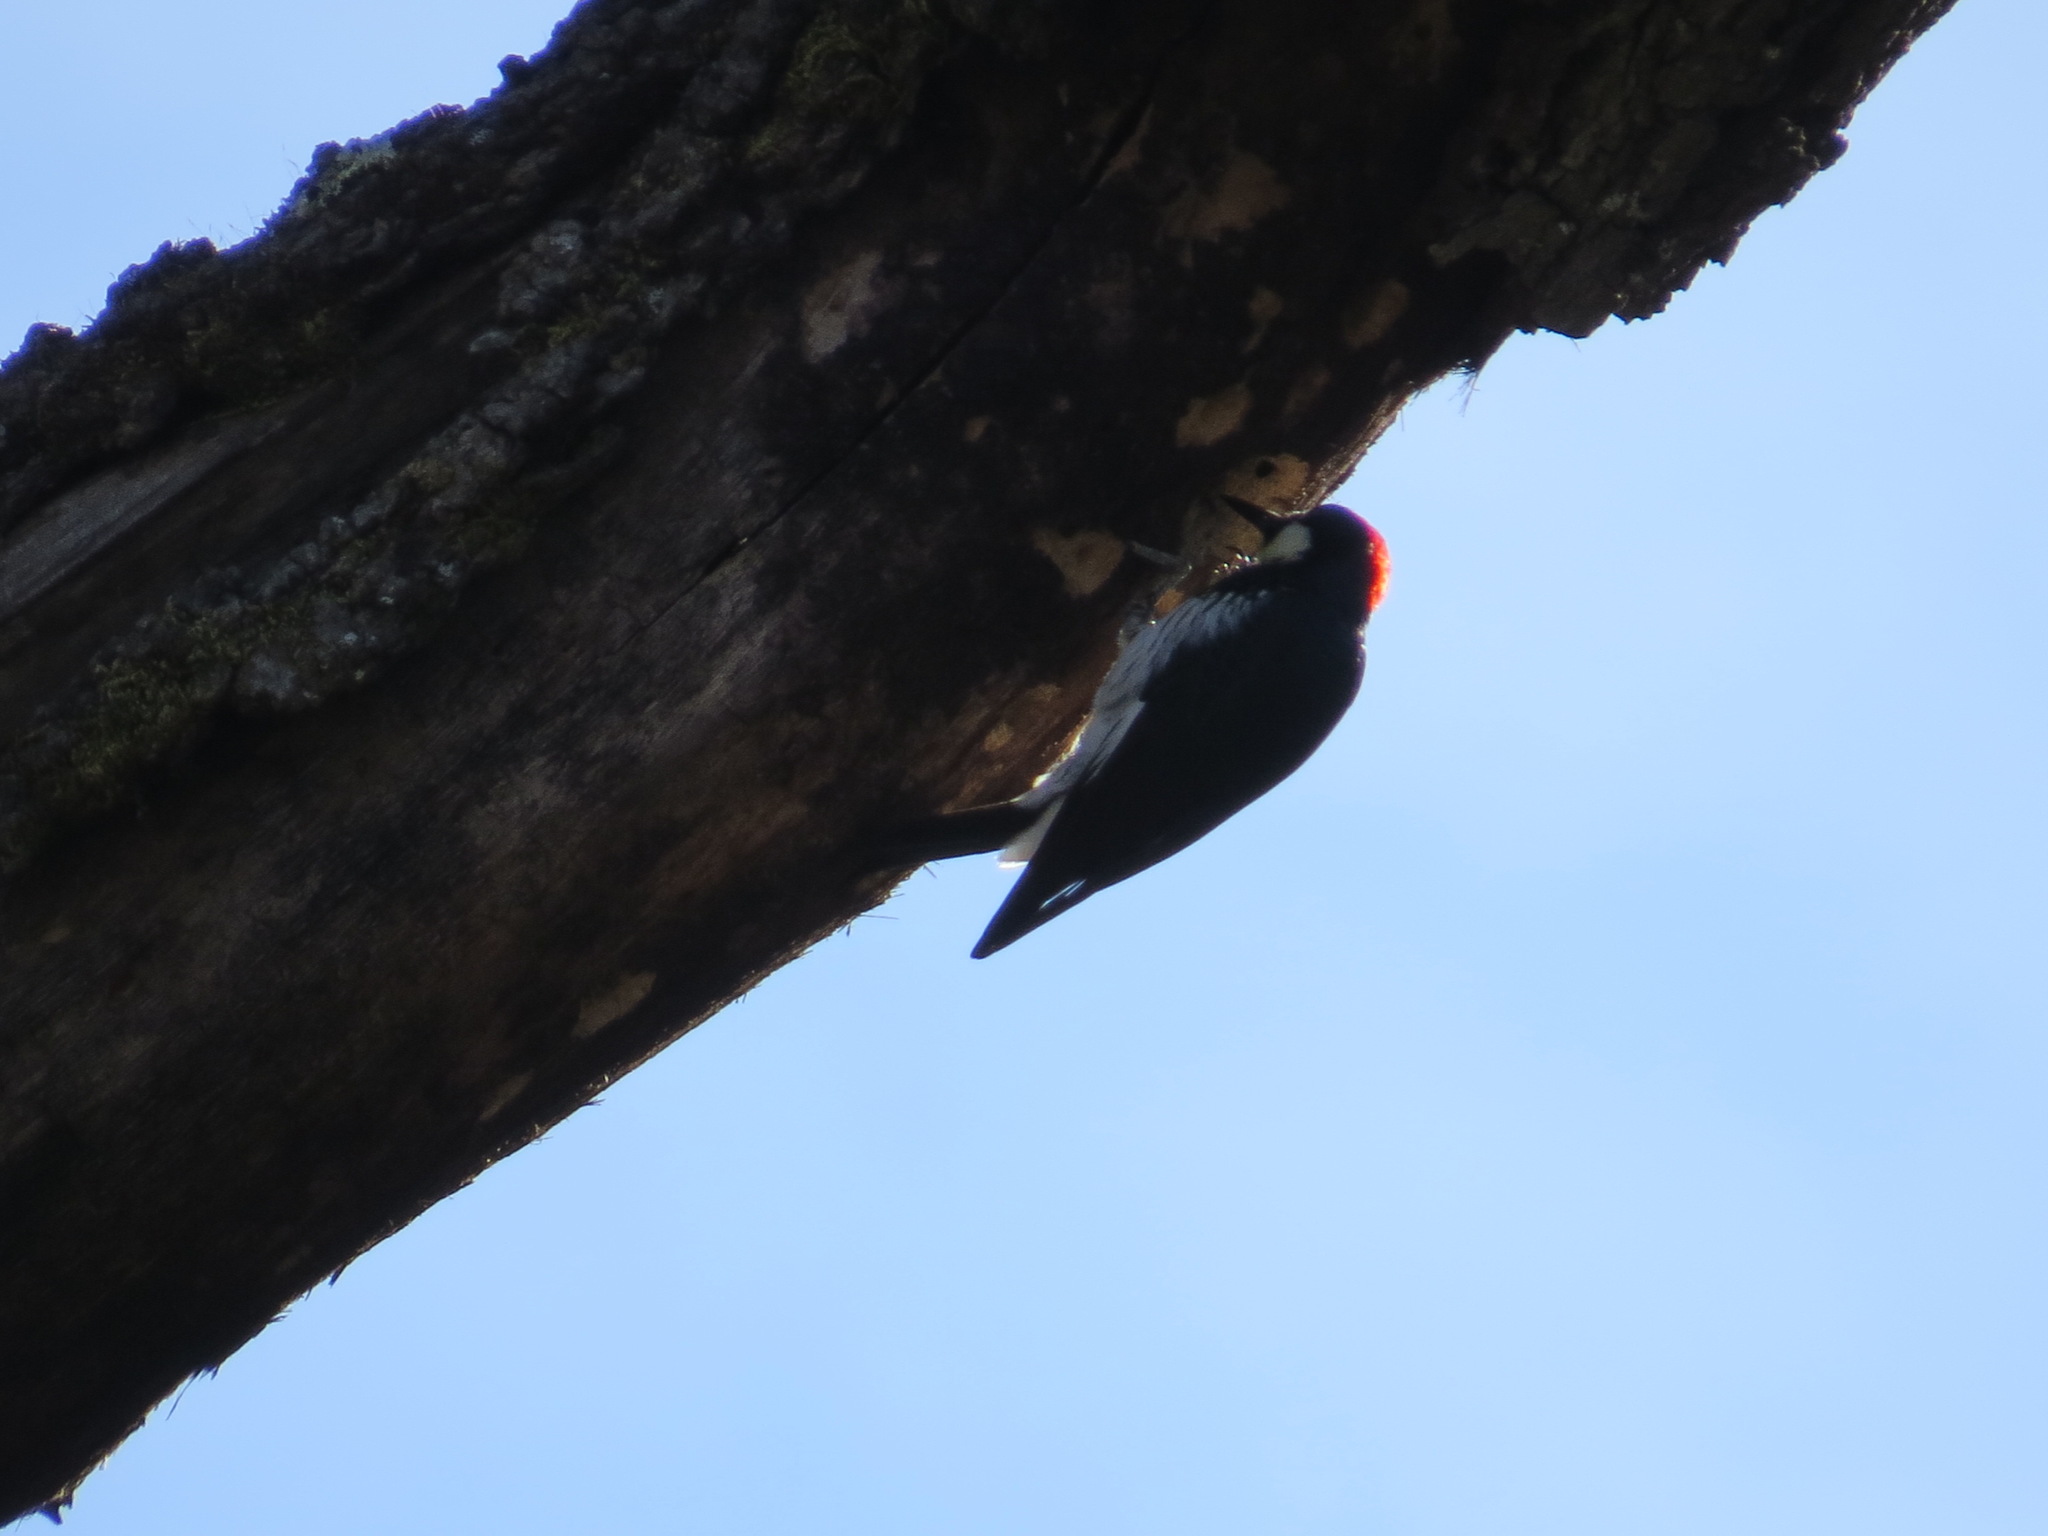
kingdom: Animalia
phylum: Chordata
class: Aves
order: Piciformes
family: Picidae
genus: Melanerpes
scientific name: Melanerpes formicivorus
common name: Acorn woodpecker
